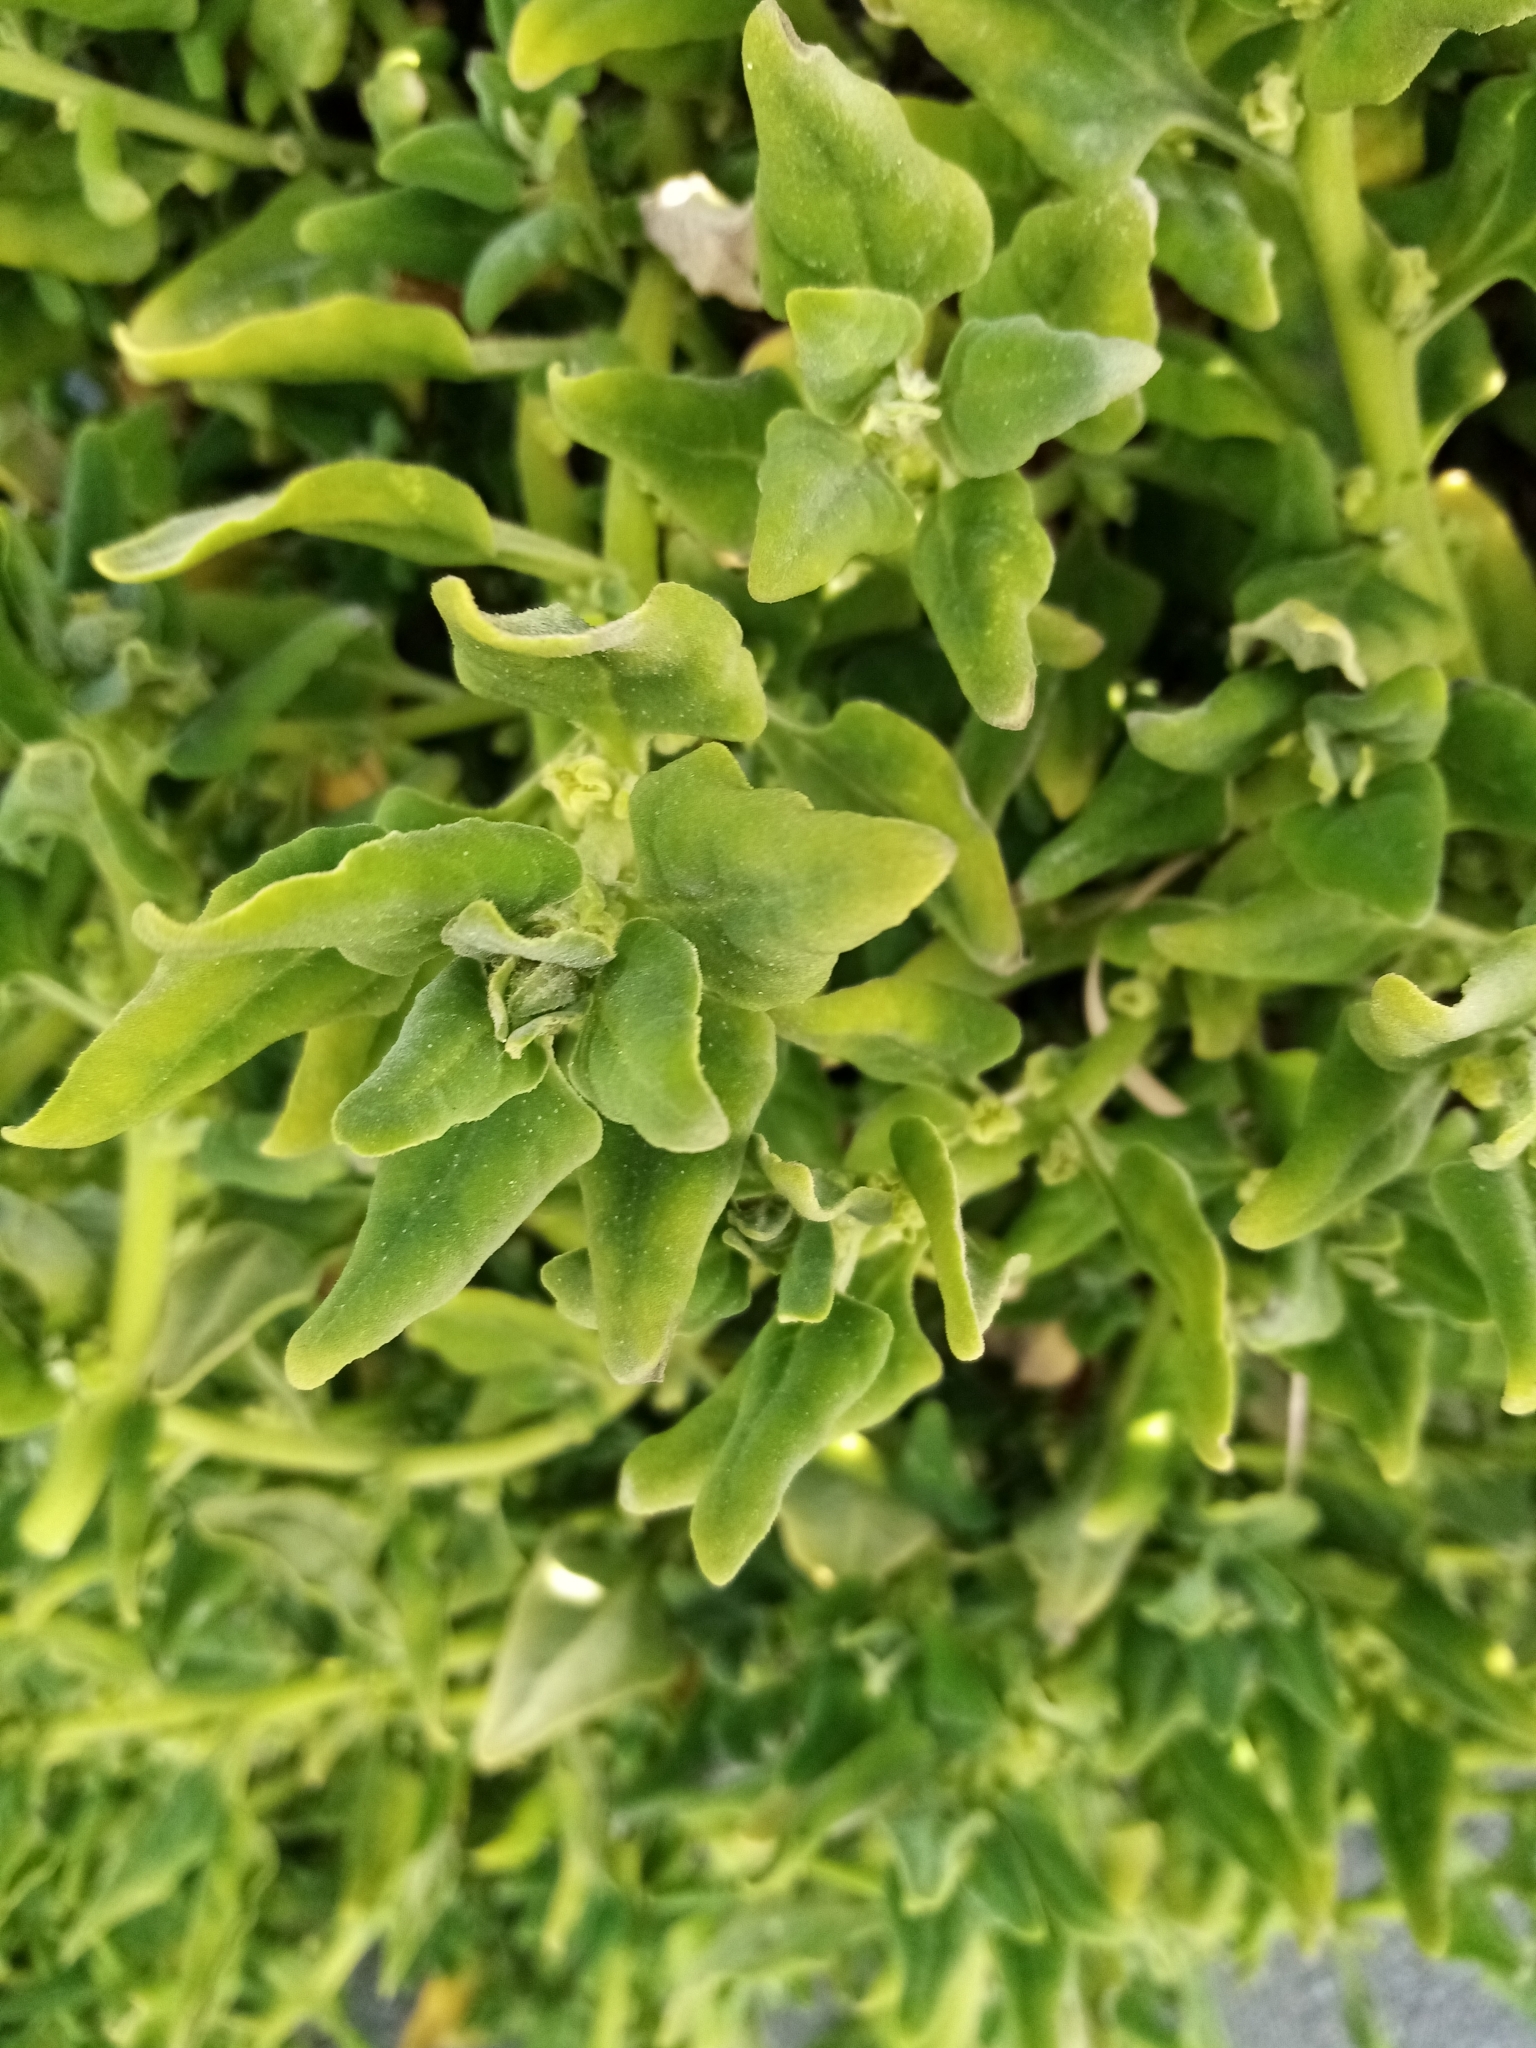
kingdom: Plantae
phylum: Tracheophyta
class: Magnoliopsida
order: Caryophyllales
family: Aizoaceae
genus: Tetragonia
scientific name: Tetragonia tetragonoides
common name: New zealand-spinach
